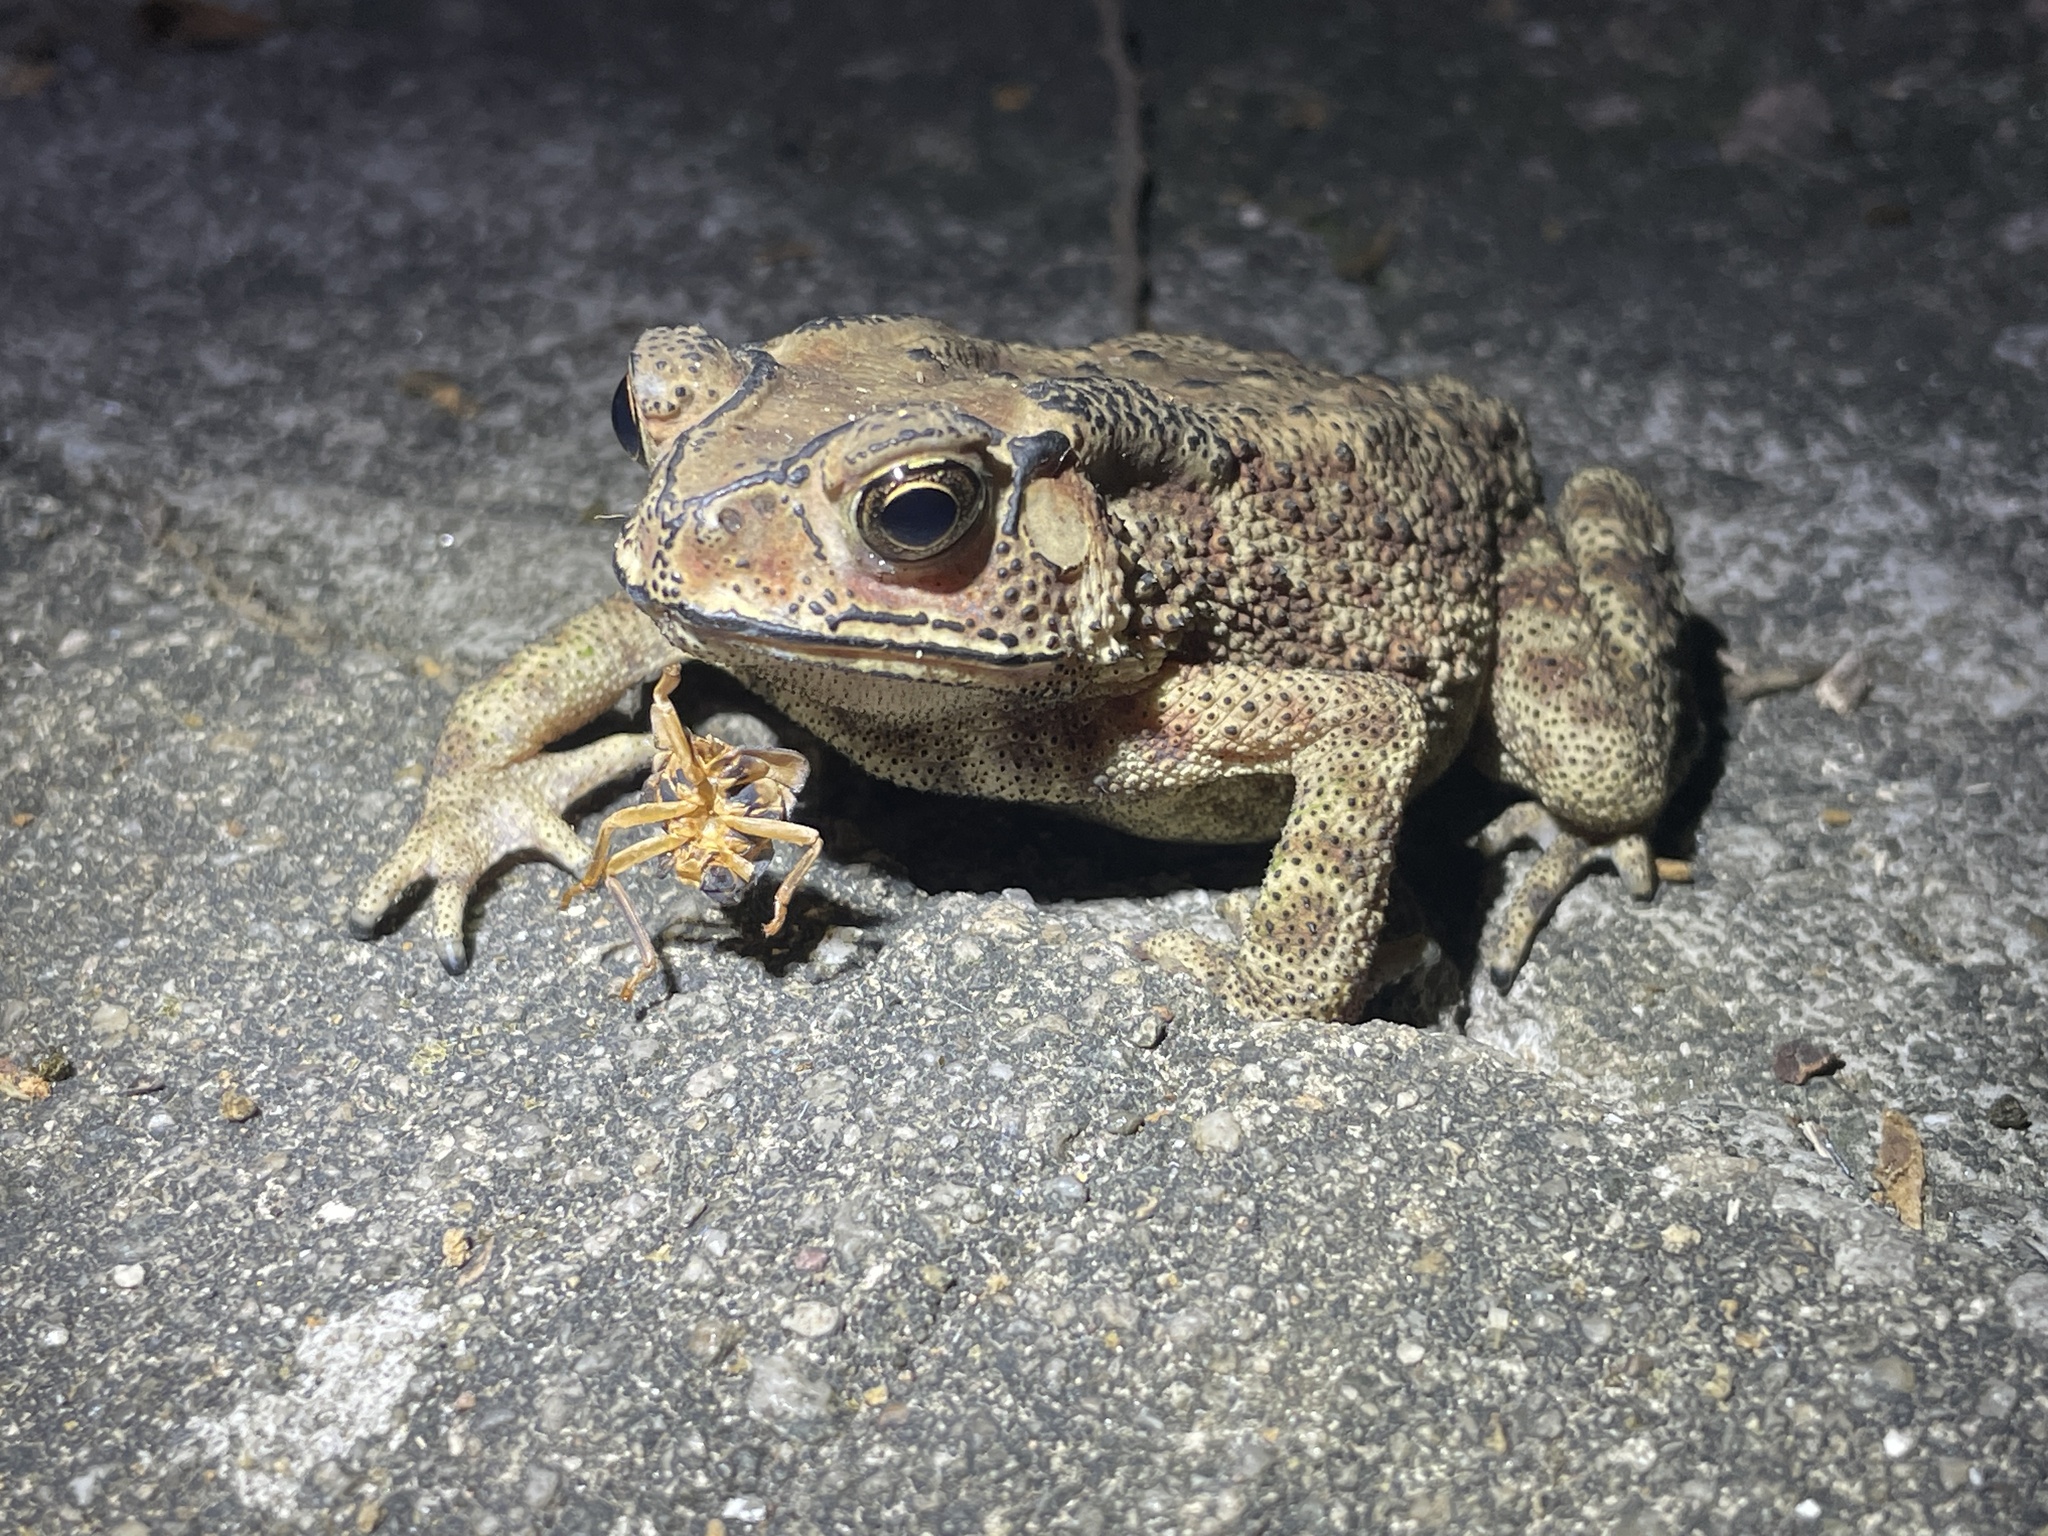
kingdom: Animalia
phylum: Chordata
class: Amphibia
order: Anura
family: Bufonidae
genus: Duttaphrynus
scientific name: Duttaphrynus melanostictus
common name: Common sunda toad
